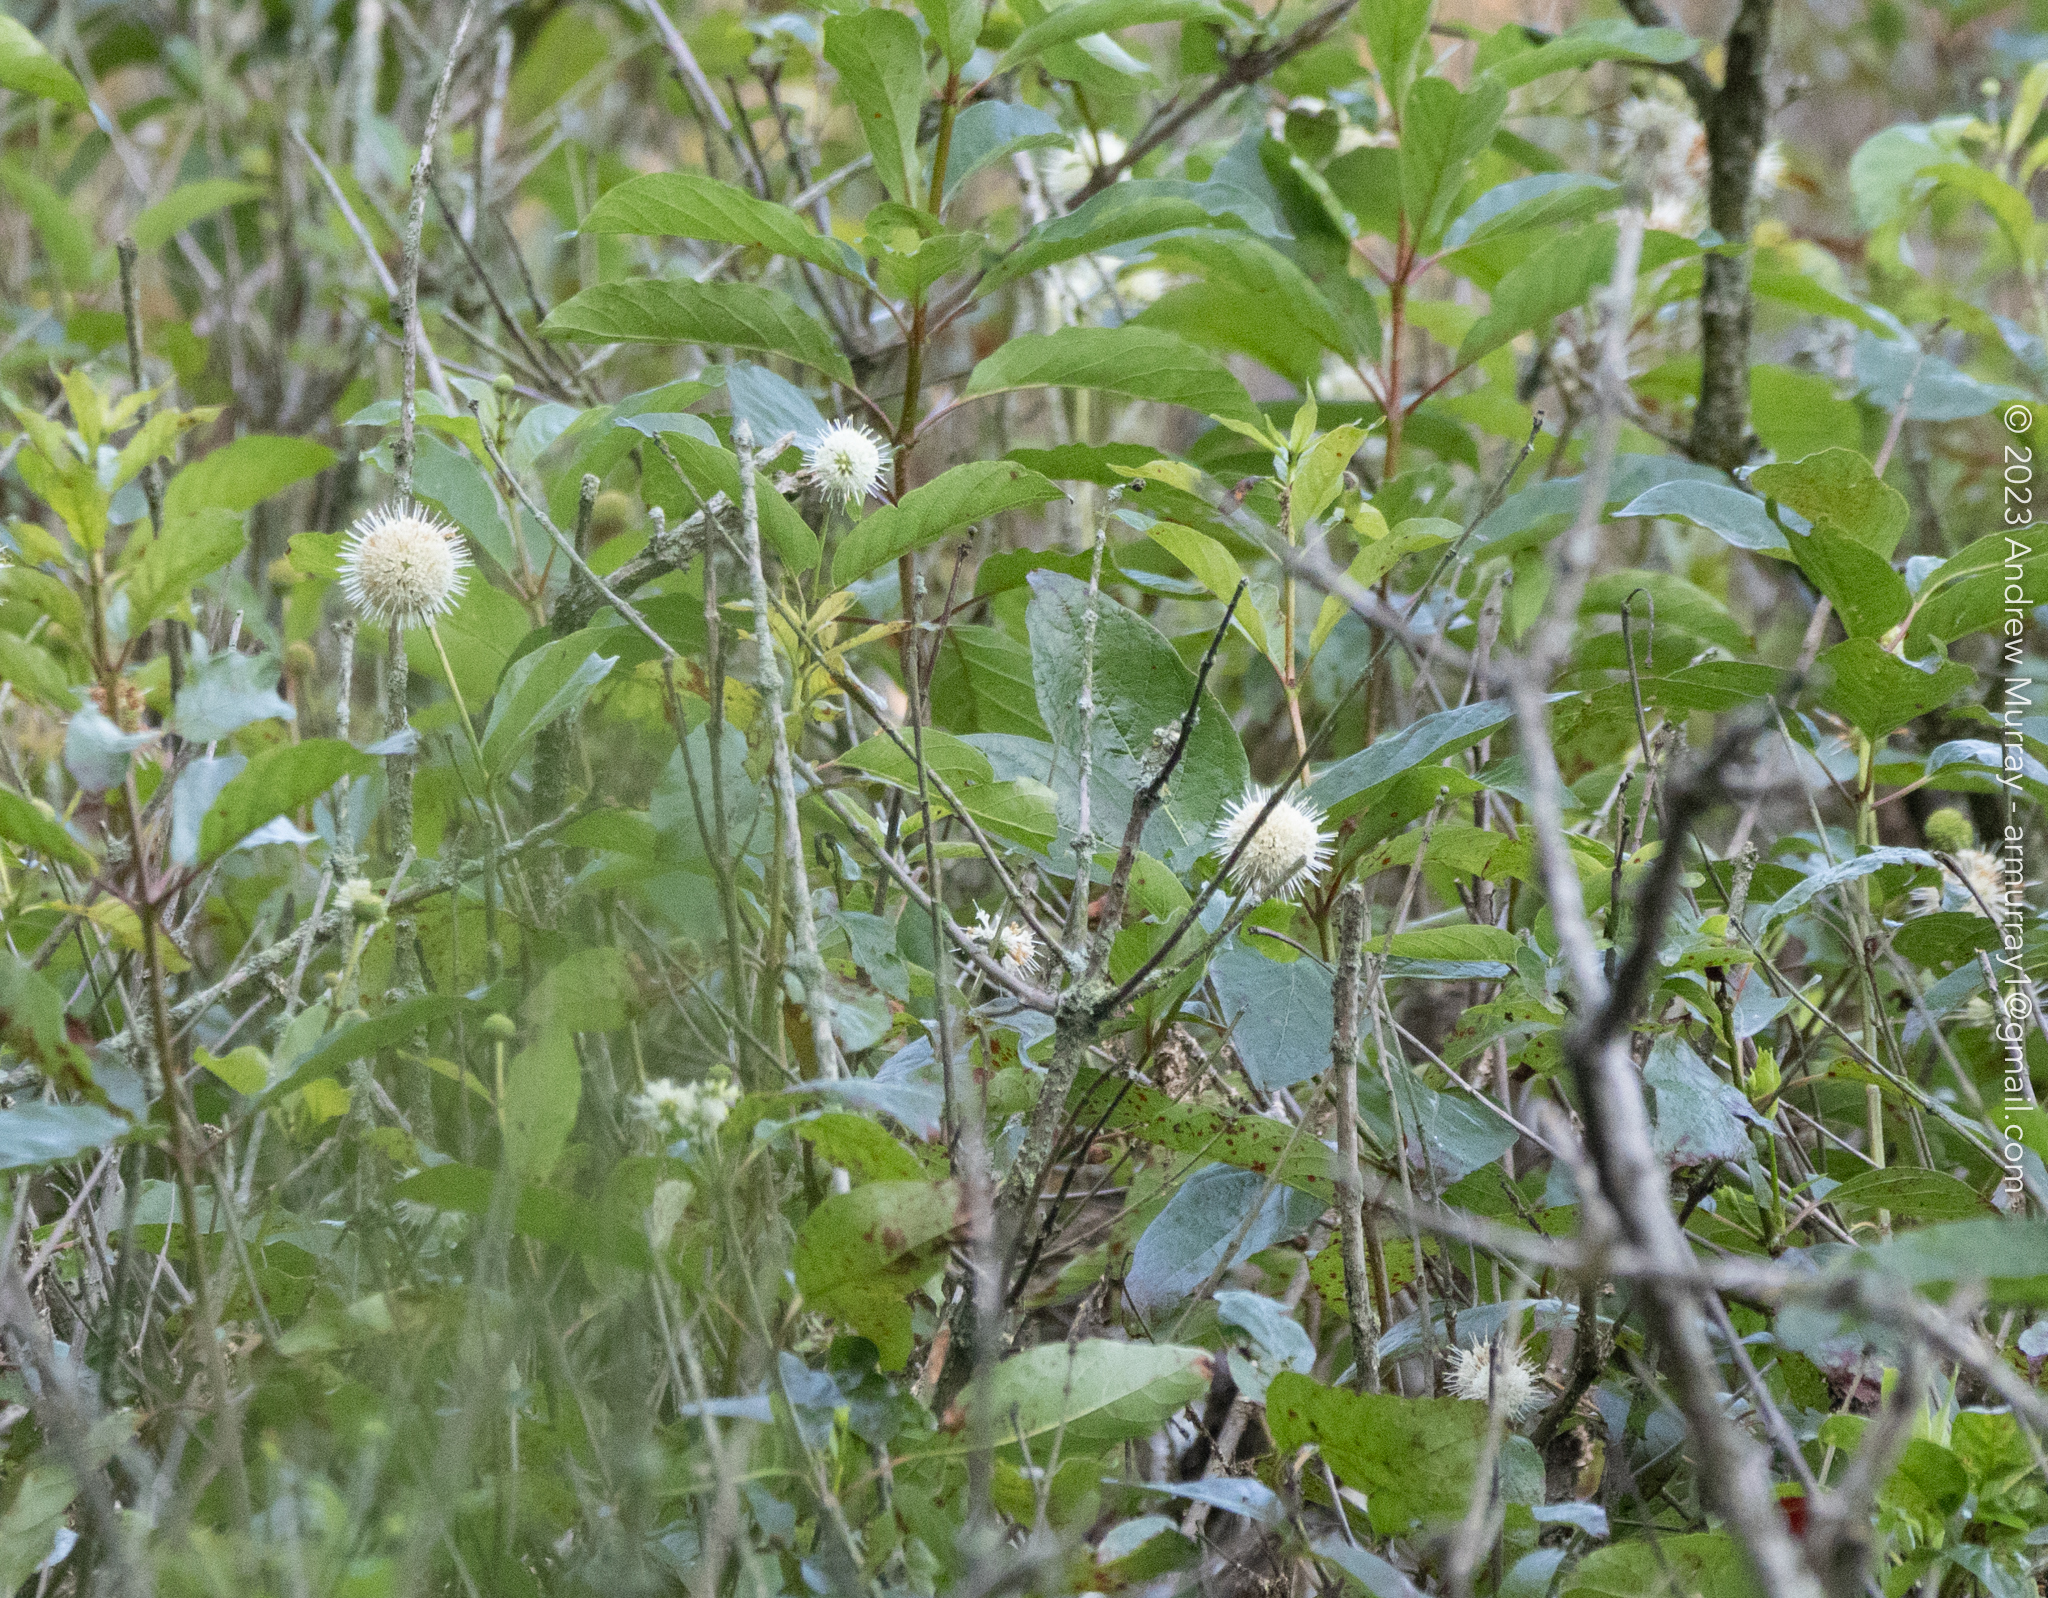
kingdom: Plantae
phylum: Tracheophyta
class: Magnoliopsida
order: Gentianales
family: Rubiaceae
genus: Cephalanthus
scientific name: Cephalanthus occidentalis
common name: Button-willow
